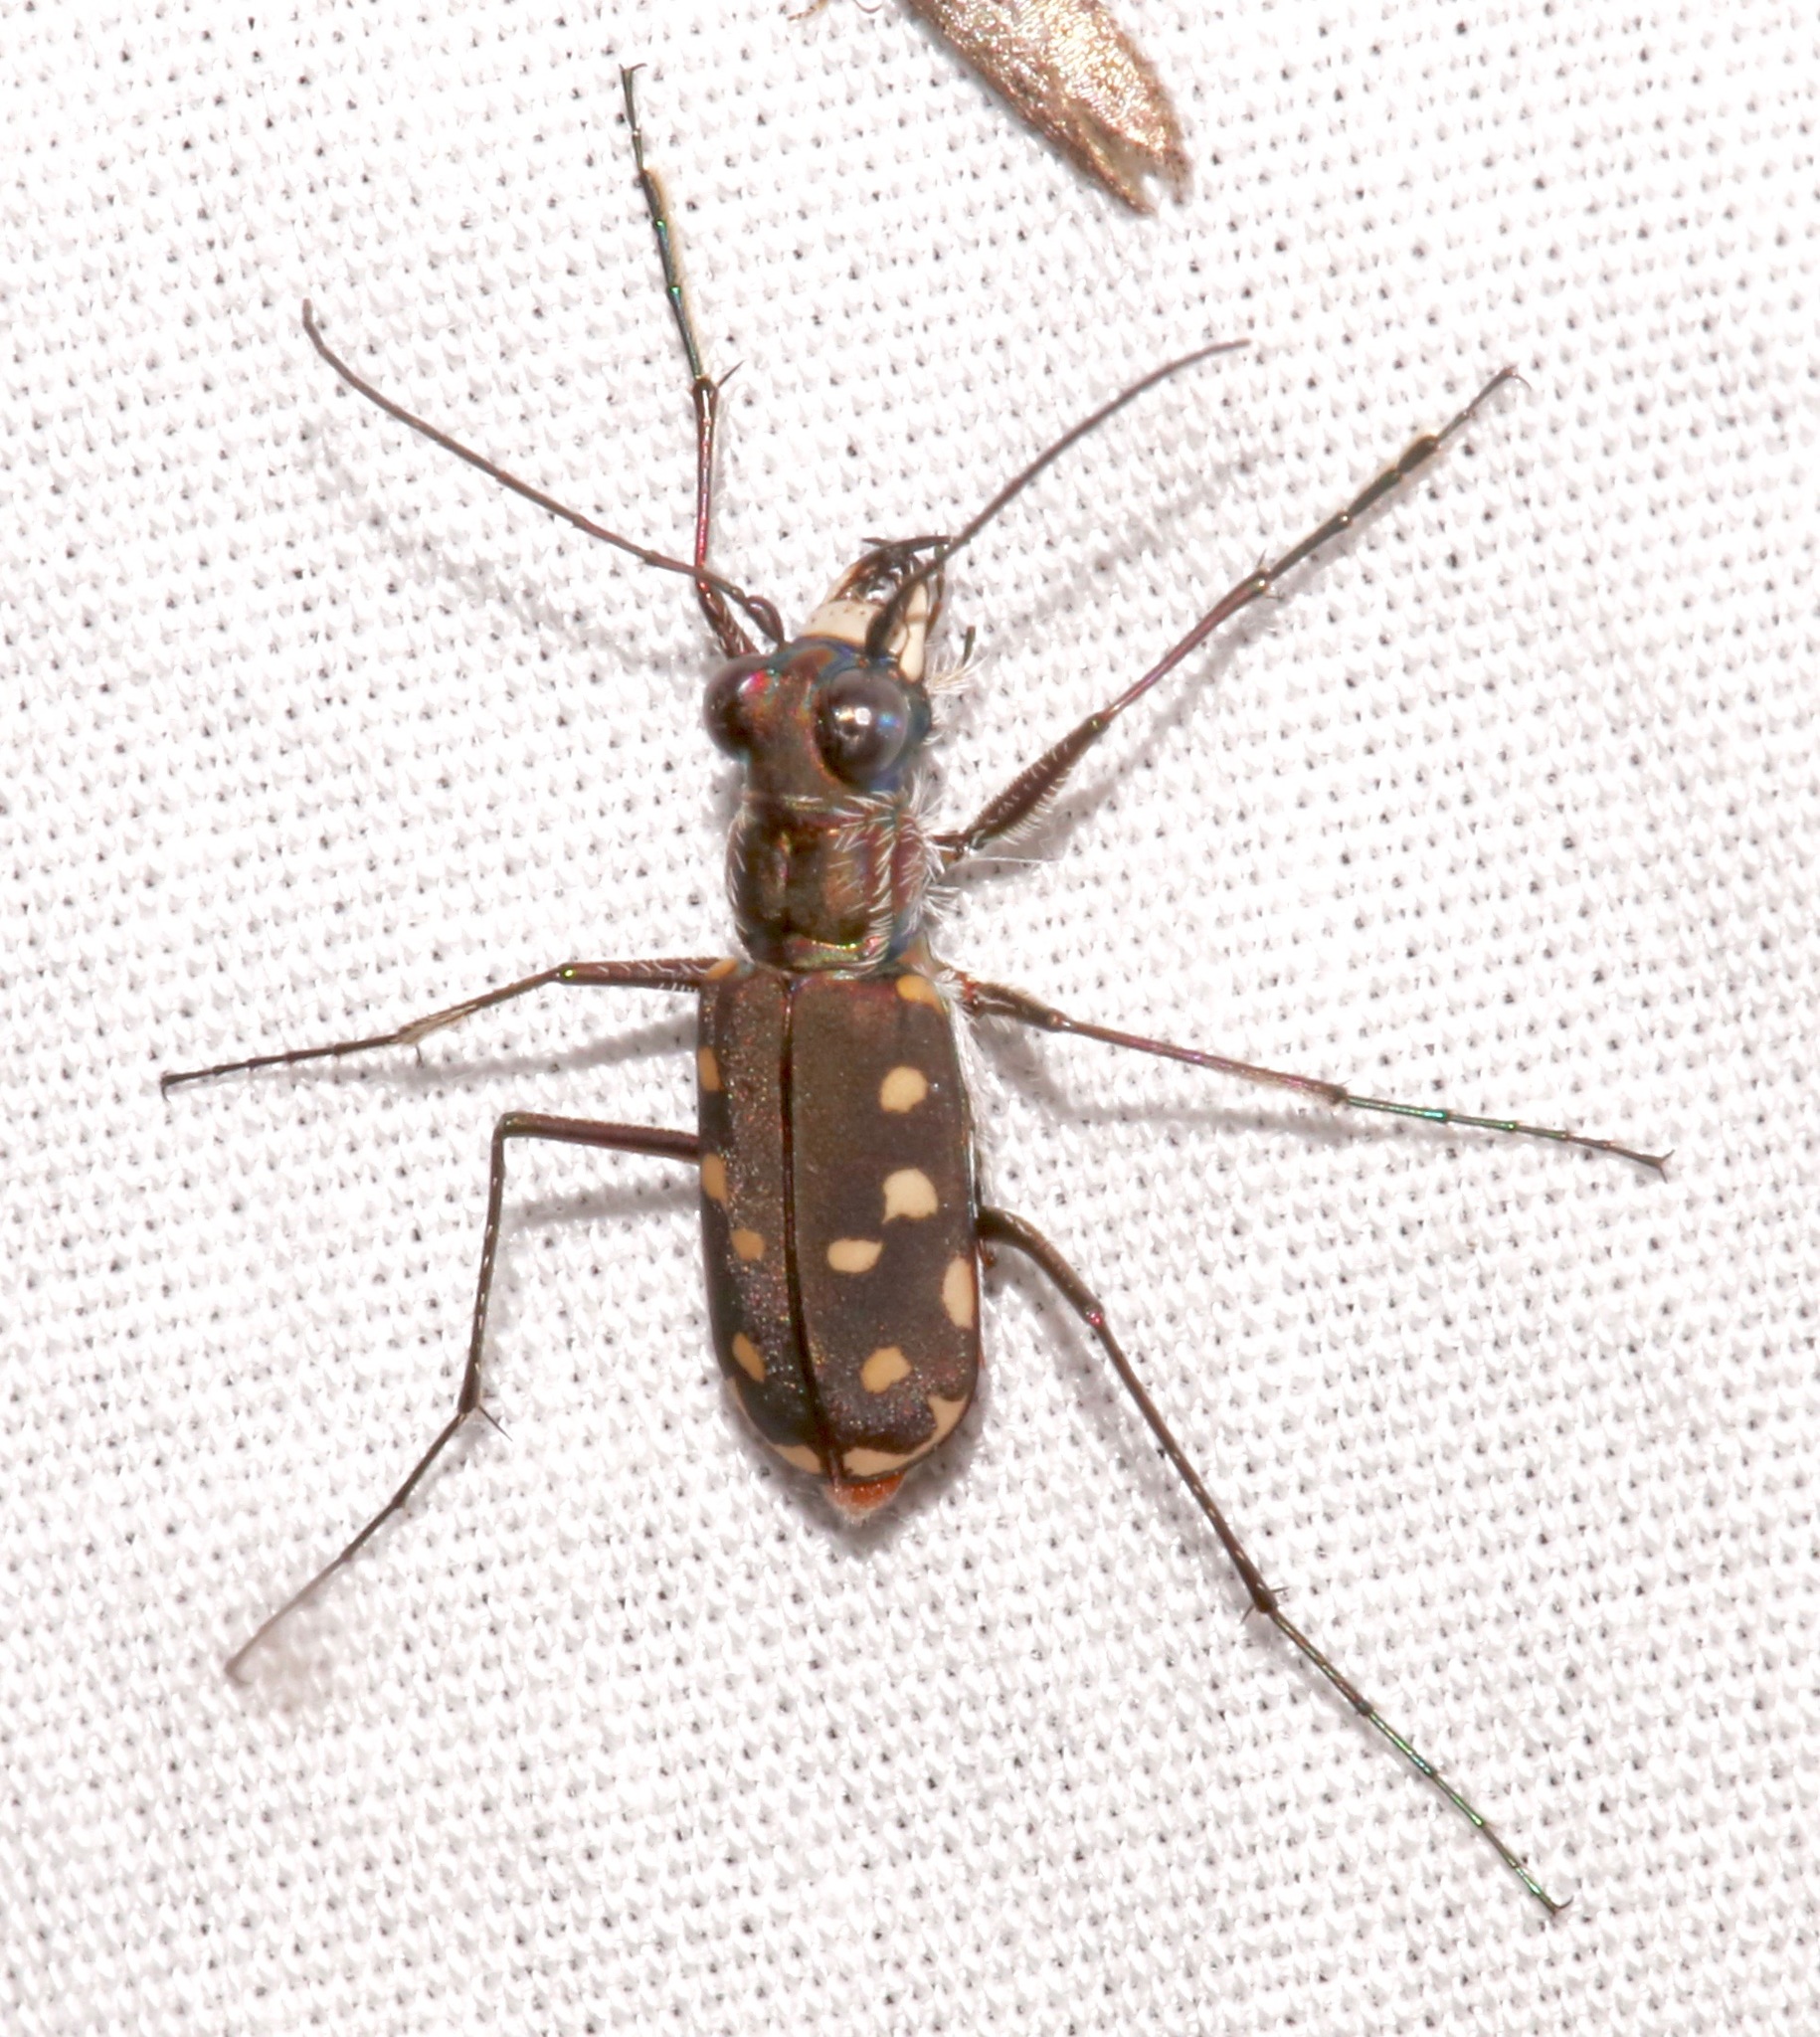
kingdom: Animalia
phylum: Arthropoda
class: Insecta
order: Coleoptera
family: Carabidae
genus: Cicindela
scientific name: Cicindela sedecimpunctata
